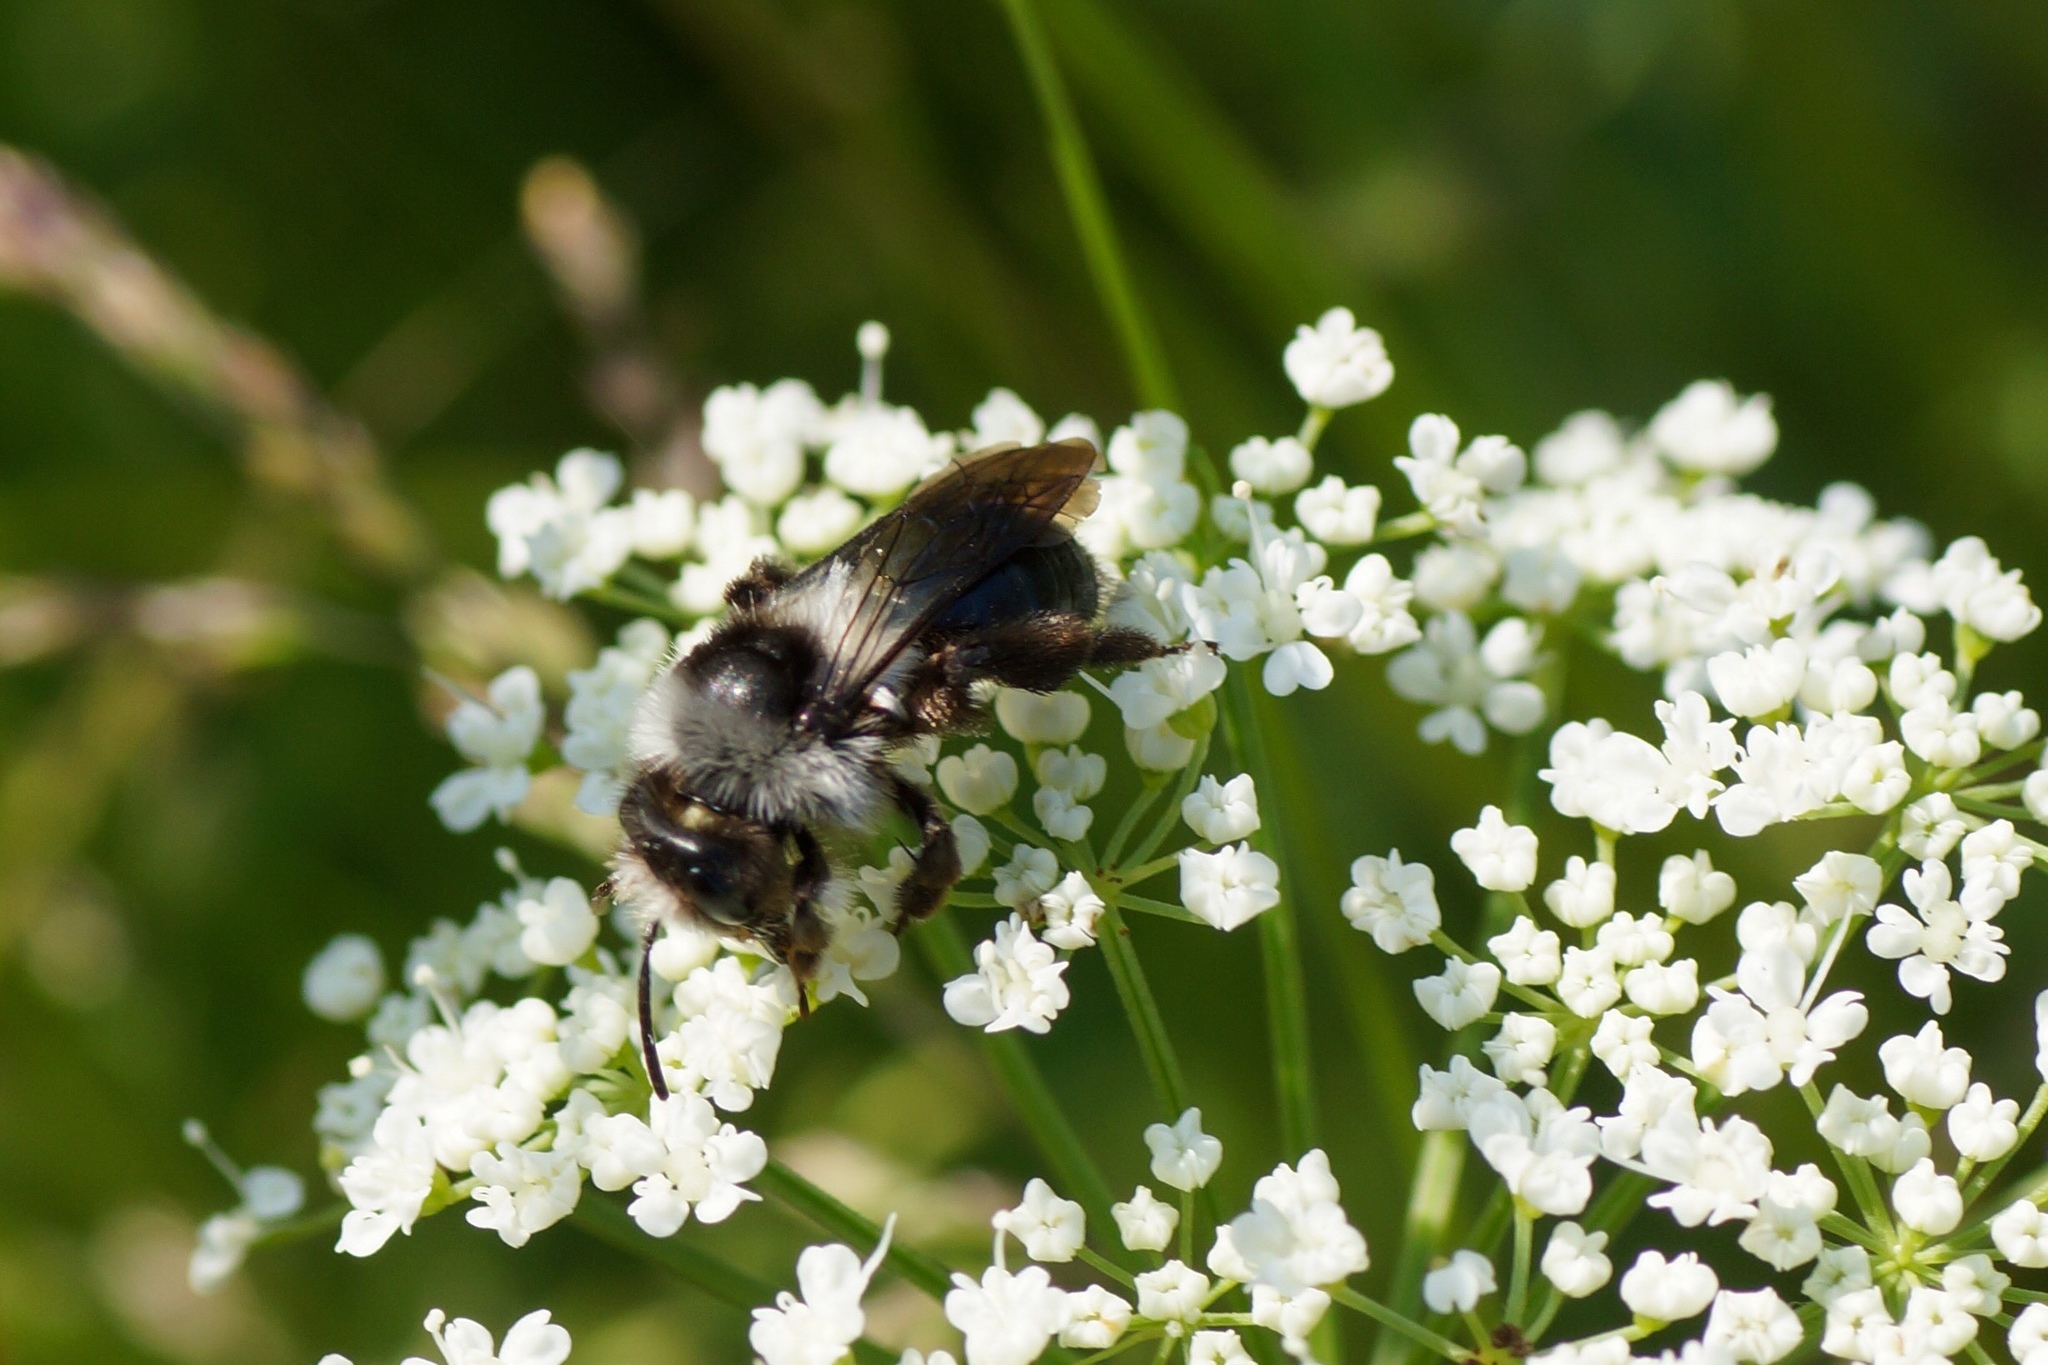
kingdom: Animalia
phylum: Arthropoda
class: Insecta
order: Hymenoptera
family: Andrenidae
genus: Andrena
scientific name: Andrena cineraria
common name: Ashy mining bee
